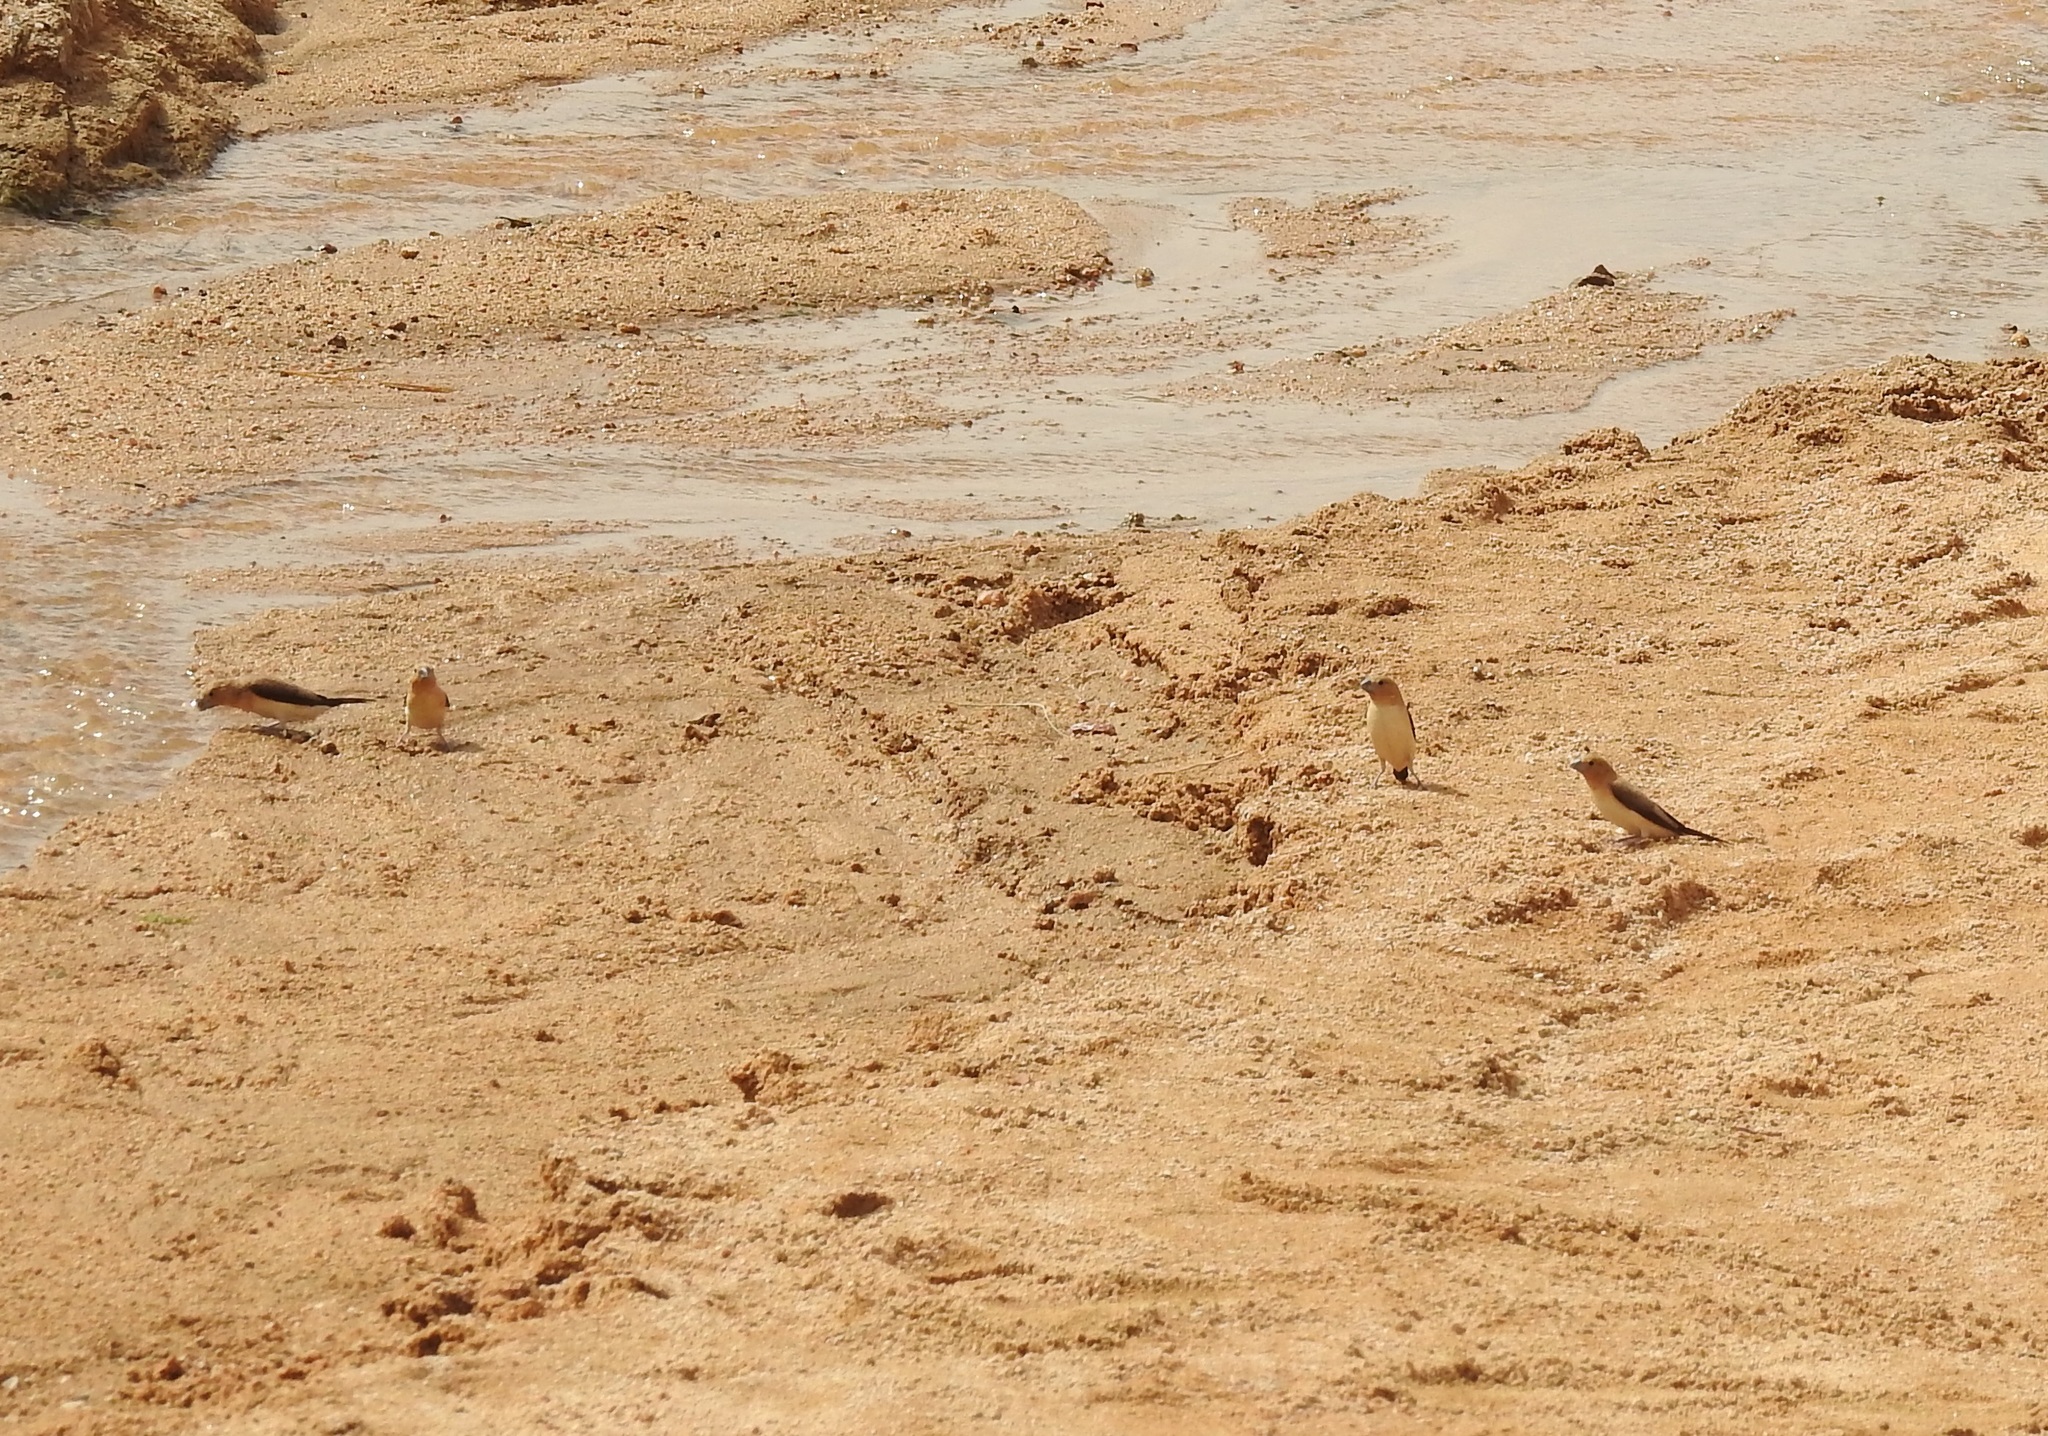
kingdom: Animalia
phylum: Chordata
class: Aves
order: Passeriformes
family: Estrildidae
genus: Euodice
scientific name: Euodice cantans
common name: African silverbill
